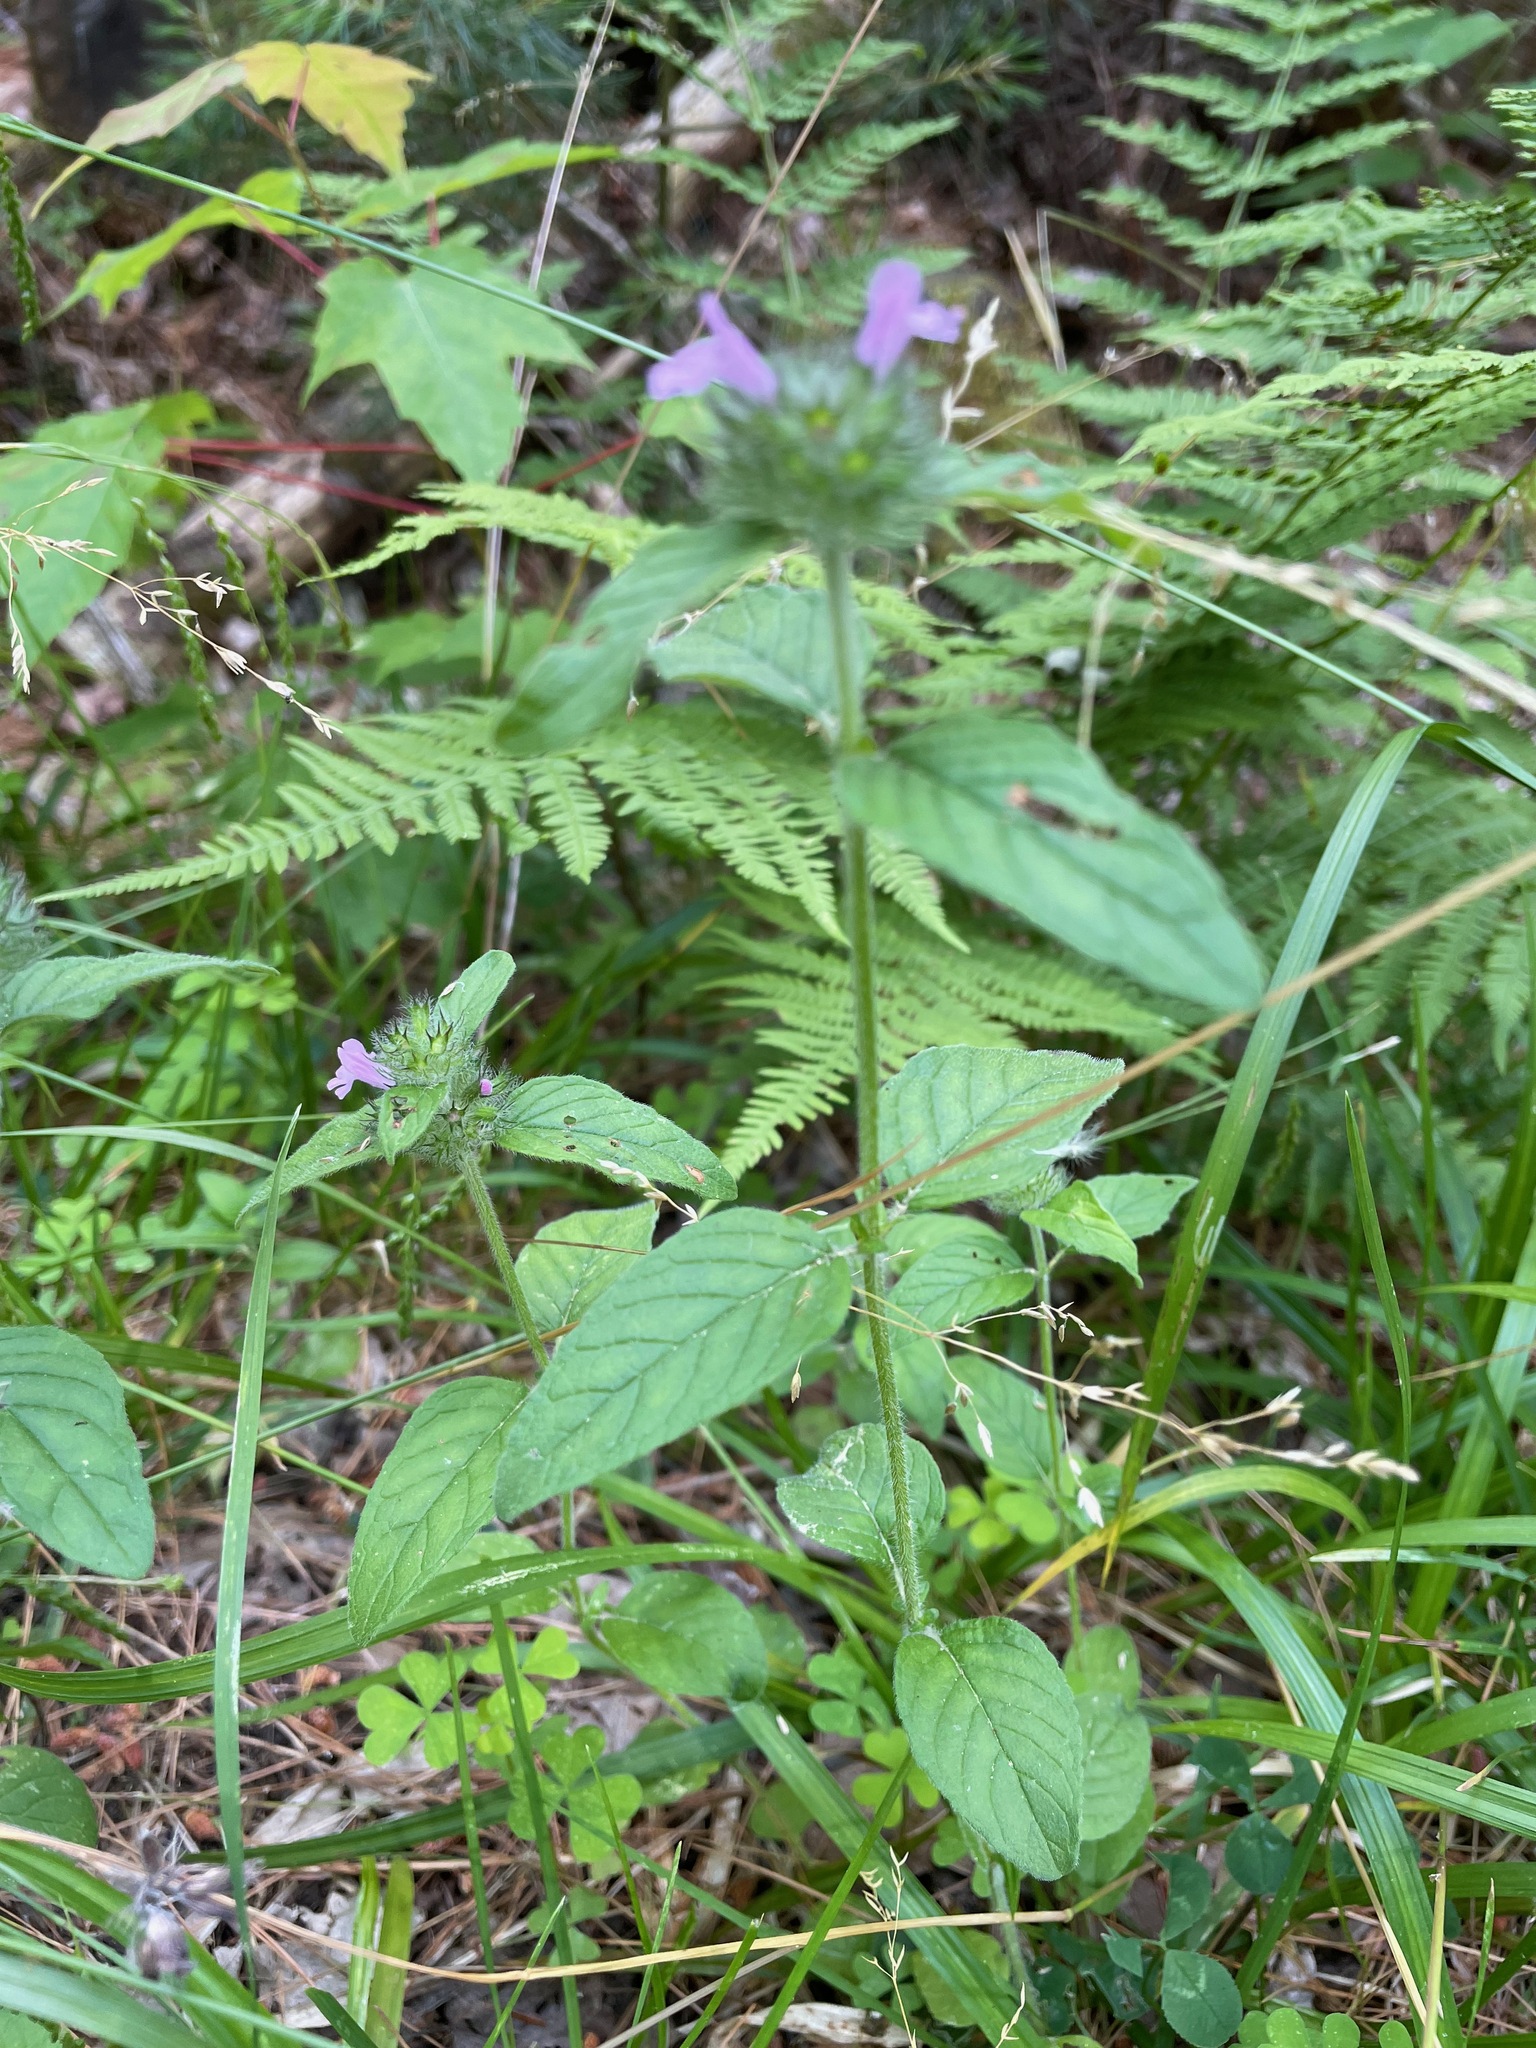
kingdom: Plantae
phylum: Tracheophyta
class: Magnoliopsida
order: Lamiales
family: Lamiaceae
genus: Clinopodium
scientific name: Clinopodium vulgare
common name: Wild basil
